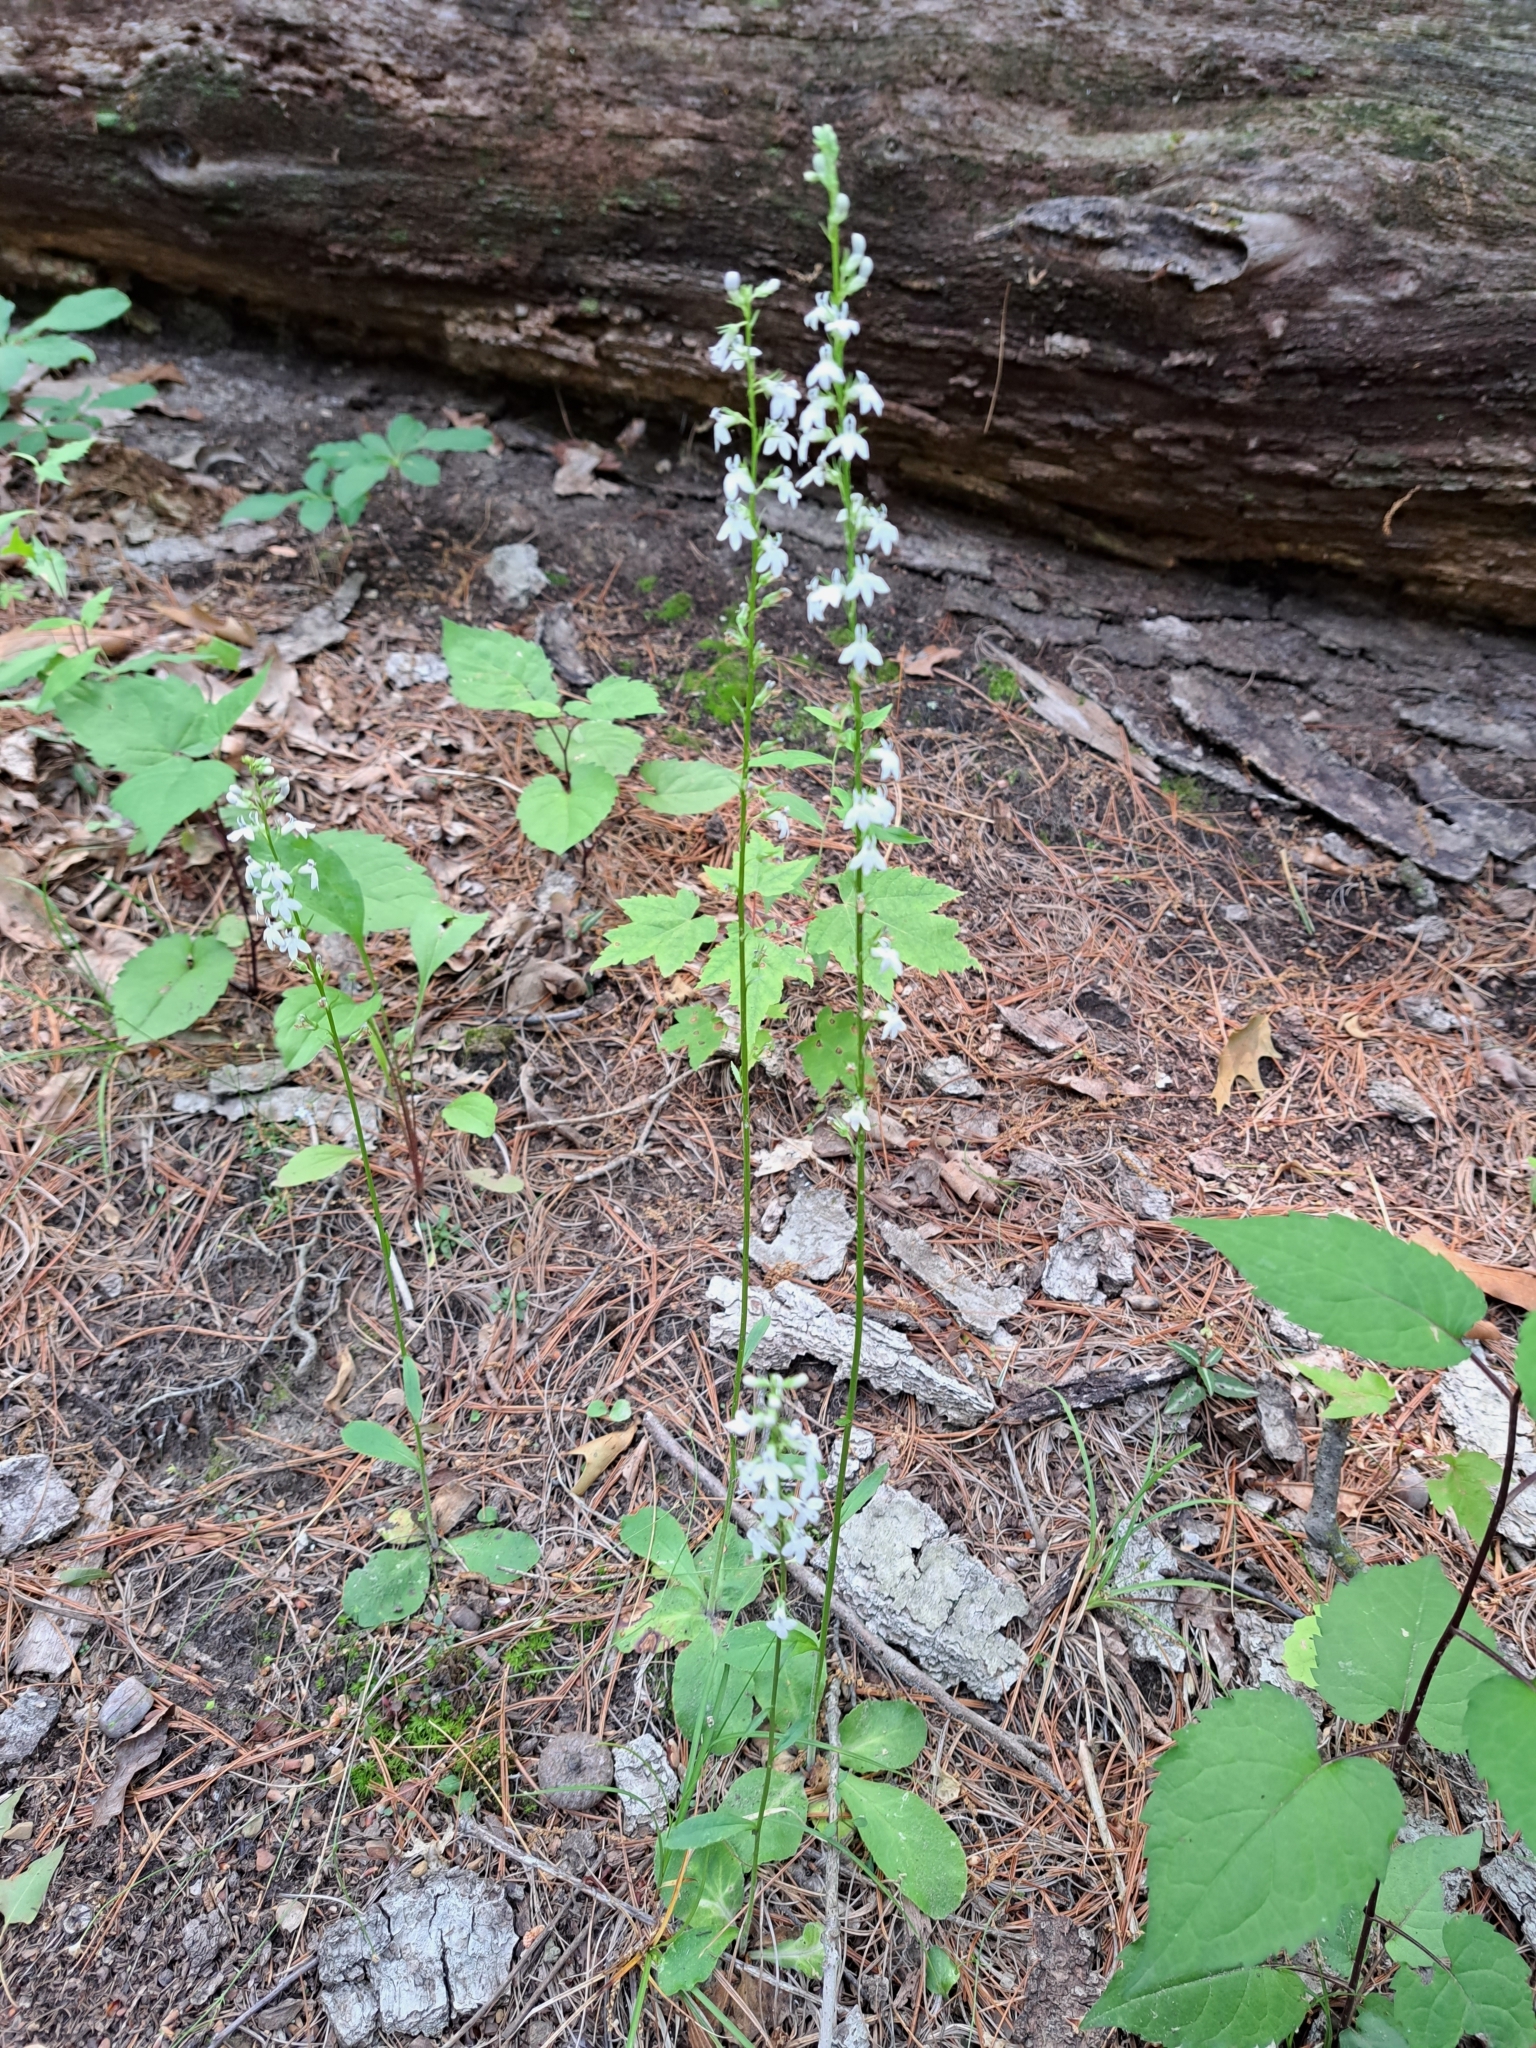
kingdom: Plantae
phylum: Tracheophyta
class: Magnoliopsida
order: Asterales
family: Campanulaceae
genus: Lobelia
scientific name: Lobelia spicata
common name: Pale-spike lobelia
